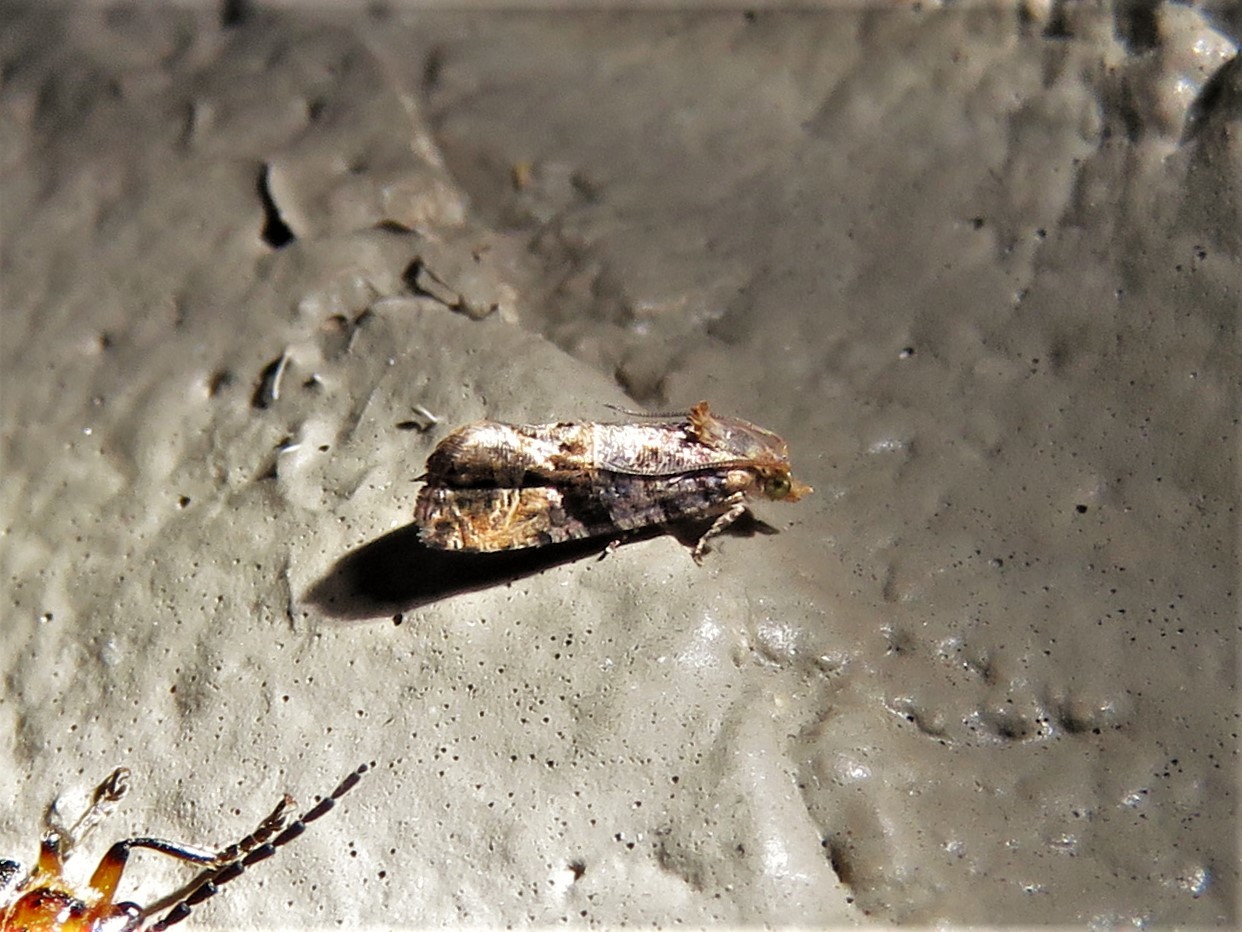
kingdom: Animalia
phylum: Arthropoda
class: Insecta
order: Lepidoptera
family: Tortricidae
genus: Paralobesia
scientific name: Paralobesia viteana
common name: Grape berry moth
